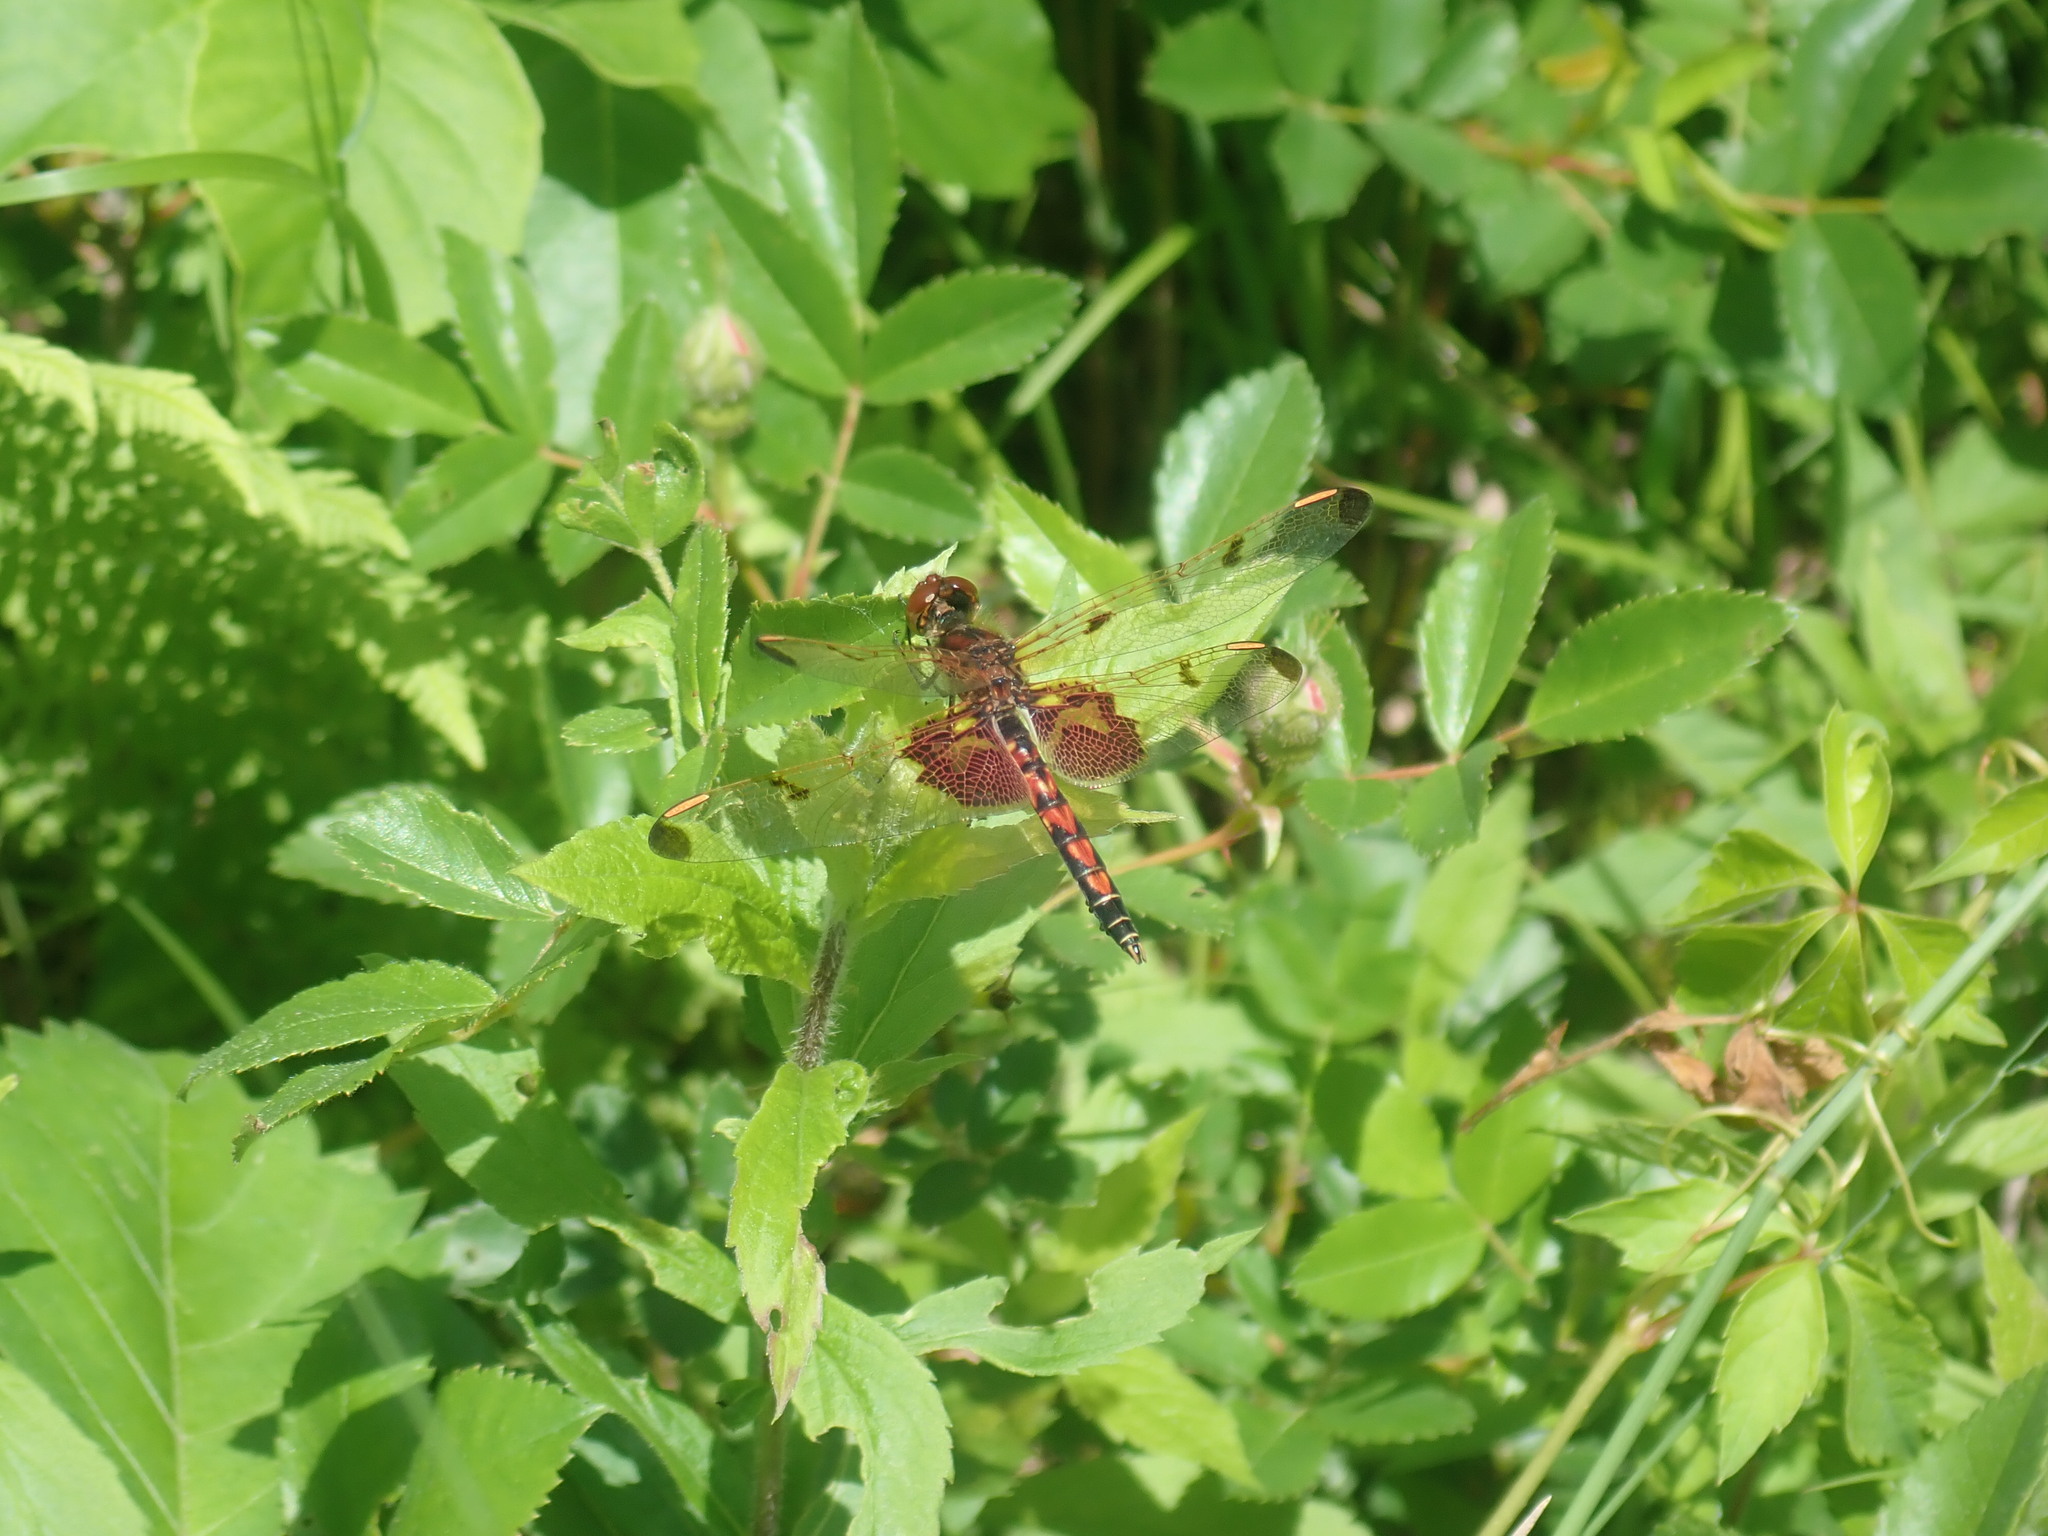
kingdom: Animalia
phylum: Arthropoda
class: Insecta
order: Odonata
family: Libellulidae
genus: Celithemis
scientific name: Celithemis elisa
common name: Calico pennant
